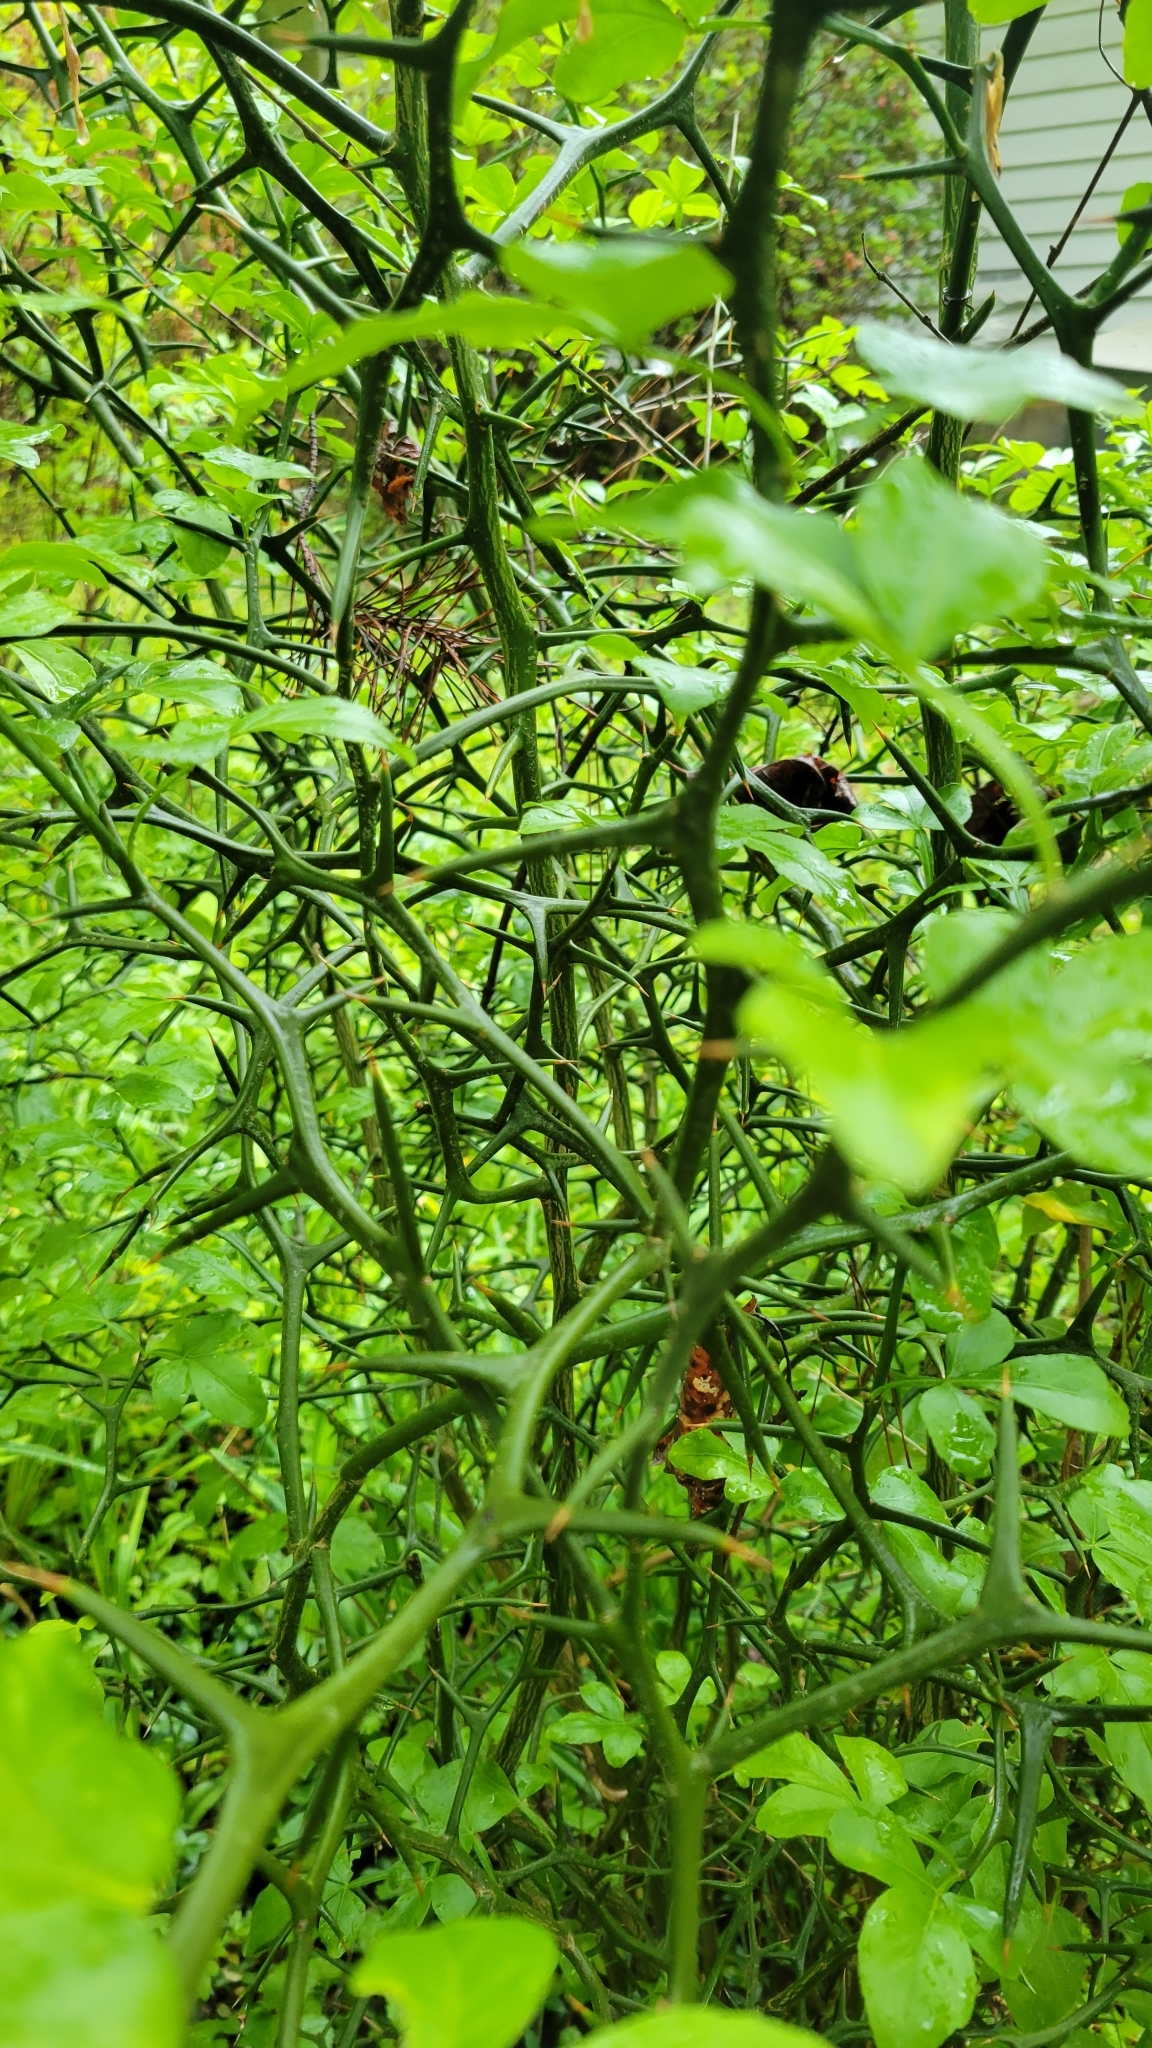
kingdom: Plantae
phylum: Tracheophyta
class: Magnoliopsida
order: Sapindales
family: Rutaceae
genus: Citrus
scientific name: Citrus trifoliata
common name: Japanese bitter-orange
